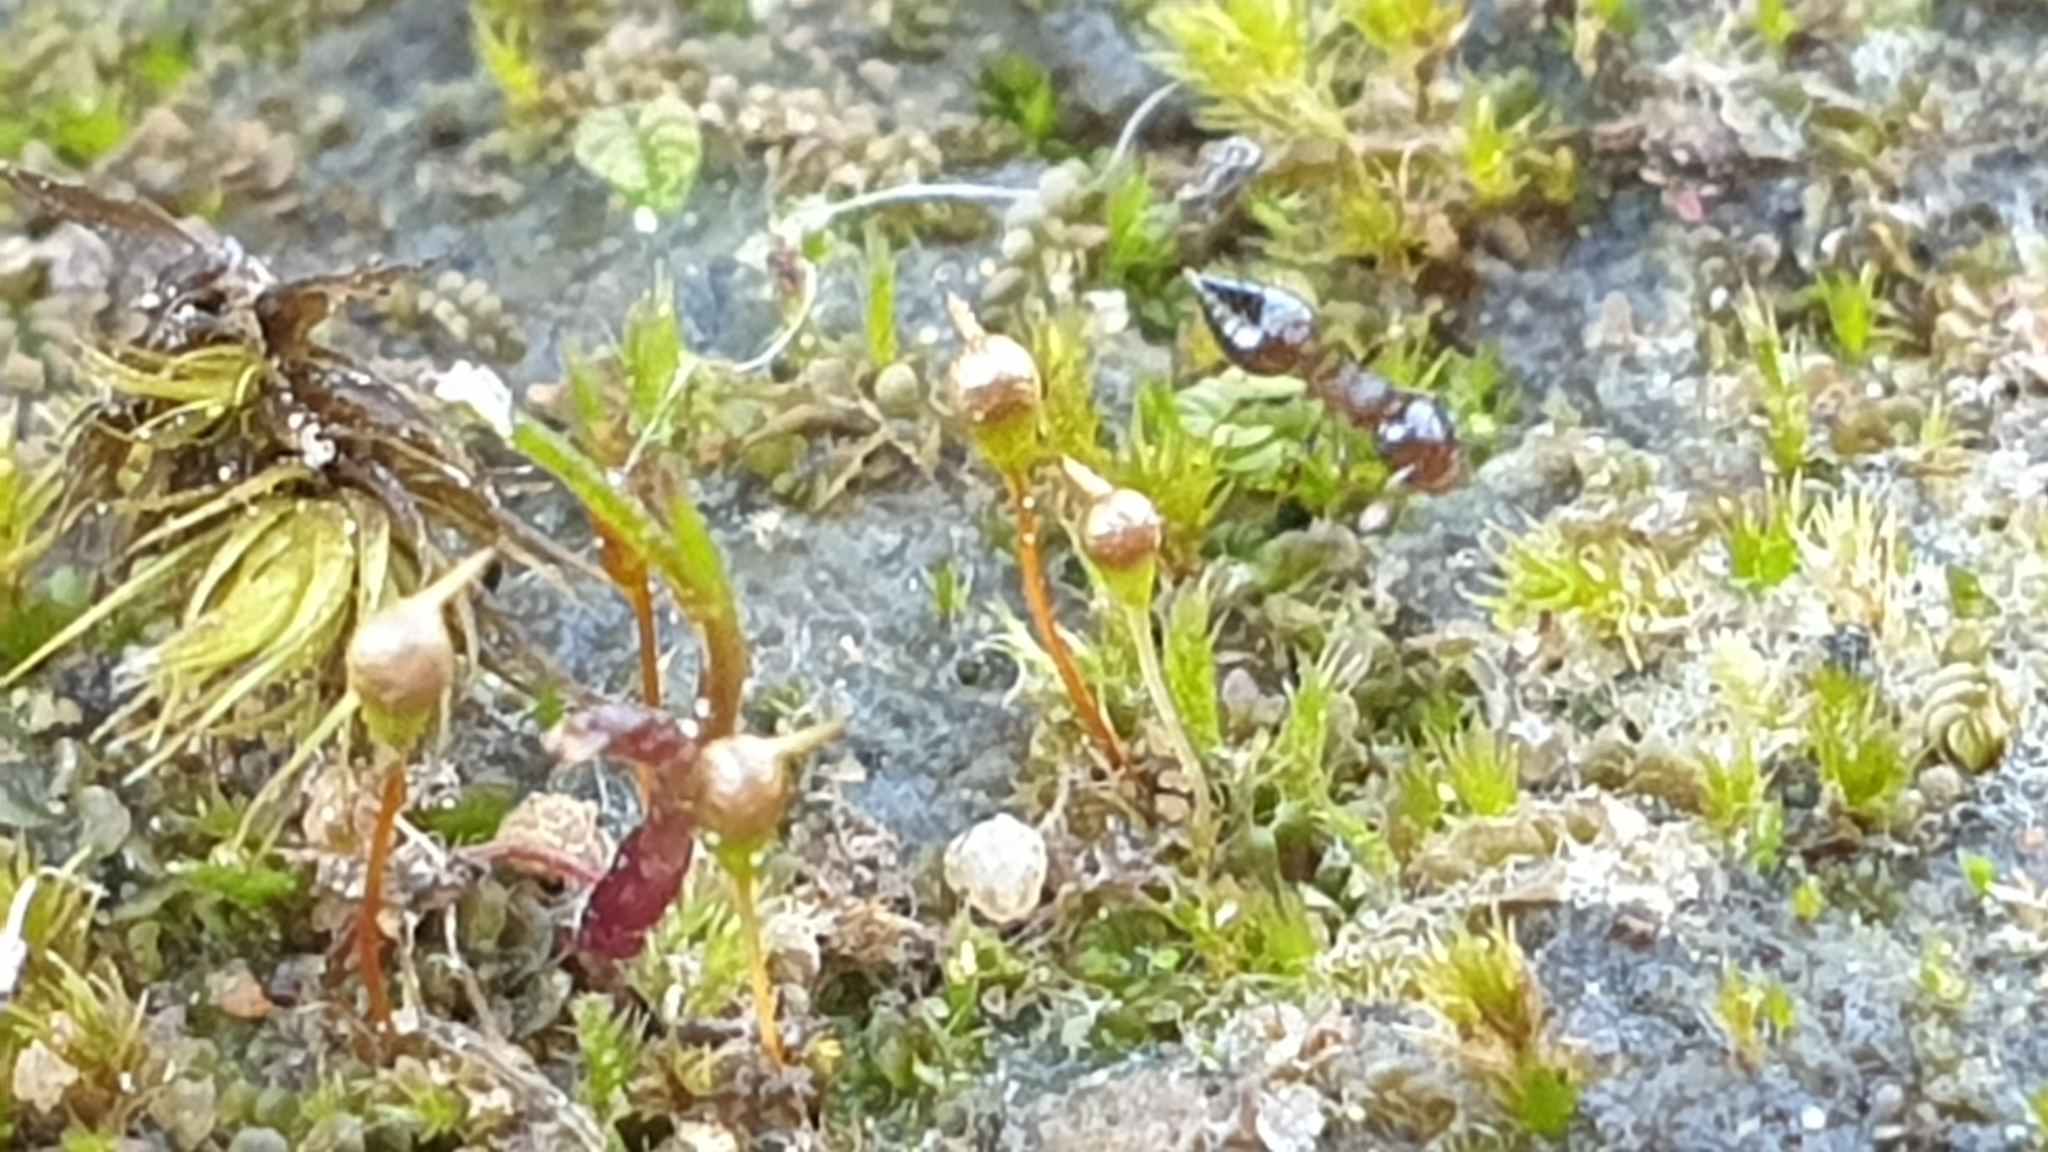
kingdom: Plantae
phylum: Bryophyta
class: Bryopsida
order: Funariales
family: Funariaceae
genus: Entosthodon
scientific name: Entosthodon subnudus
